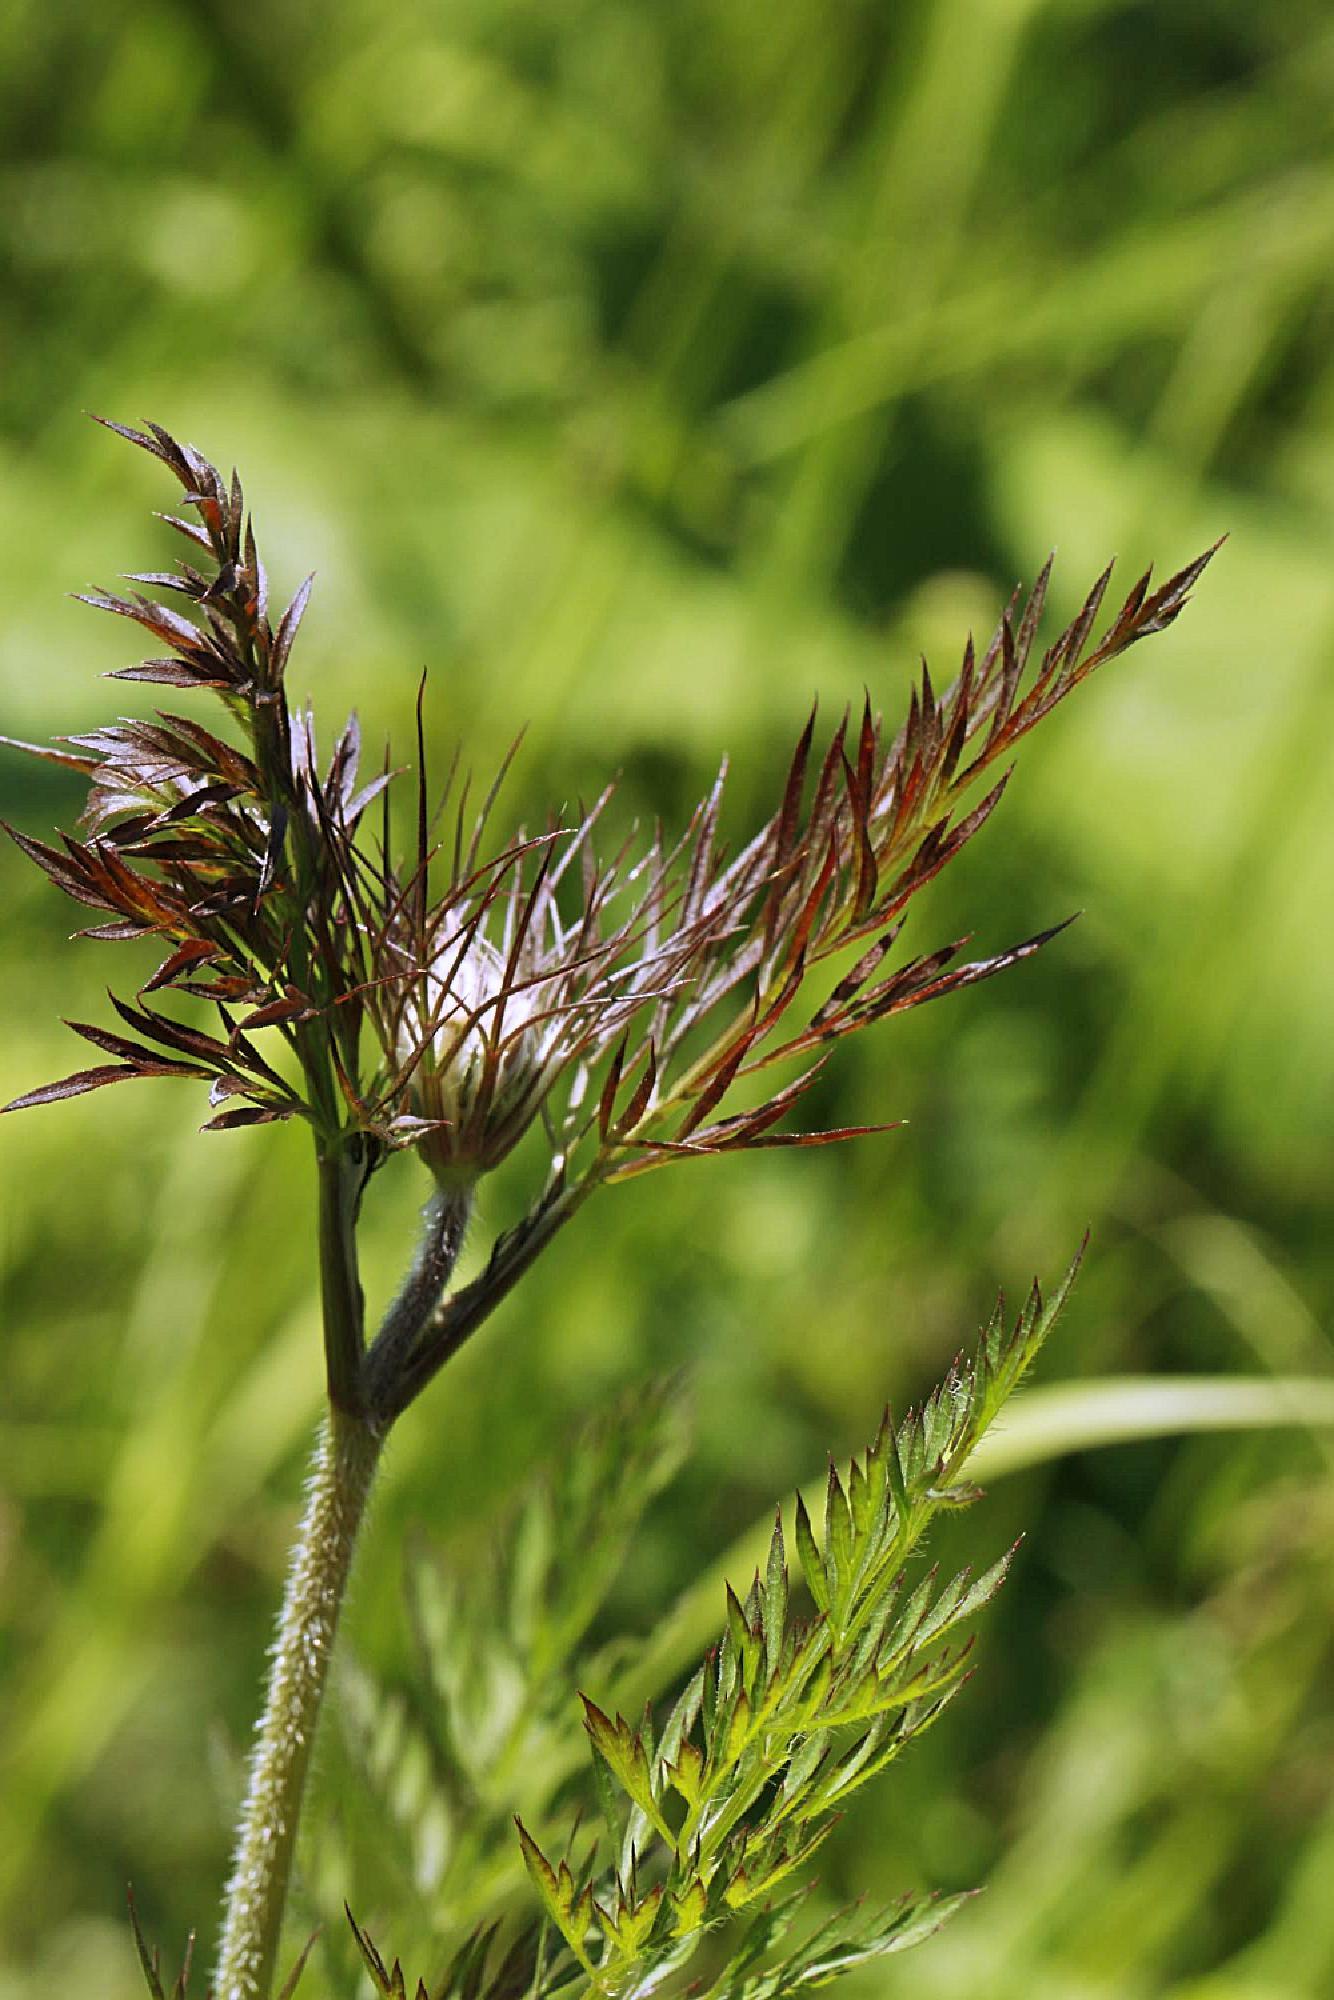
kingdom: Plantae
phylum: Tracheophyta
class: Magnoliopsida
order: Apiales
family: Apiaceae
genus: Daucus
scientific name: Daucus carota
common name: Wild carrot
